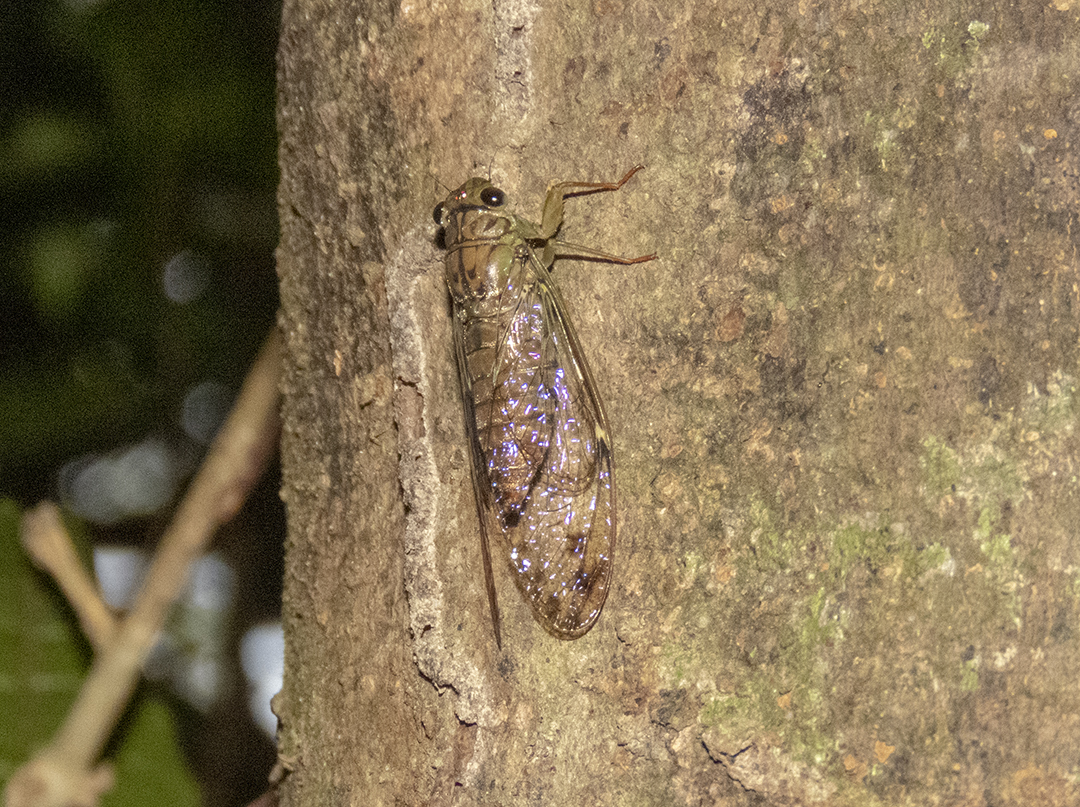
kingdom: Animalia
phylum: Arthropoda
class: Insecta
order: Hemiptera
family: Cicadidae
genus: Tanna
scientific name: Tanna kimtaewooi
